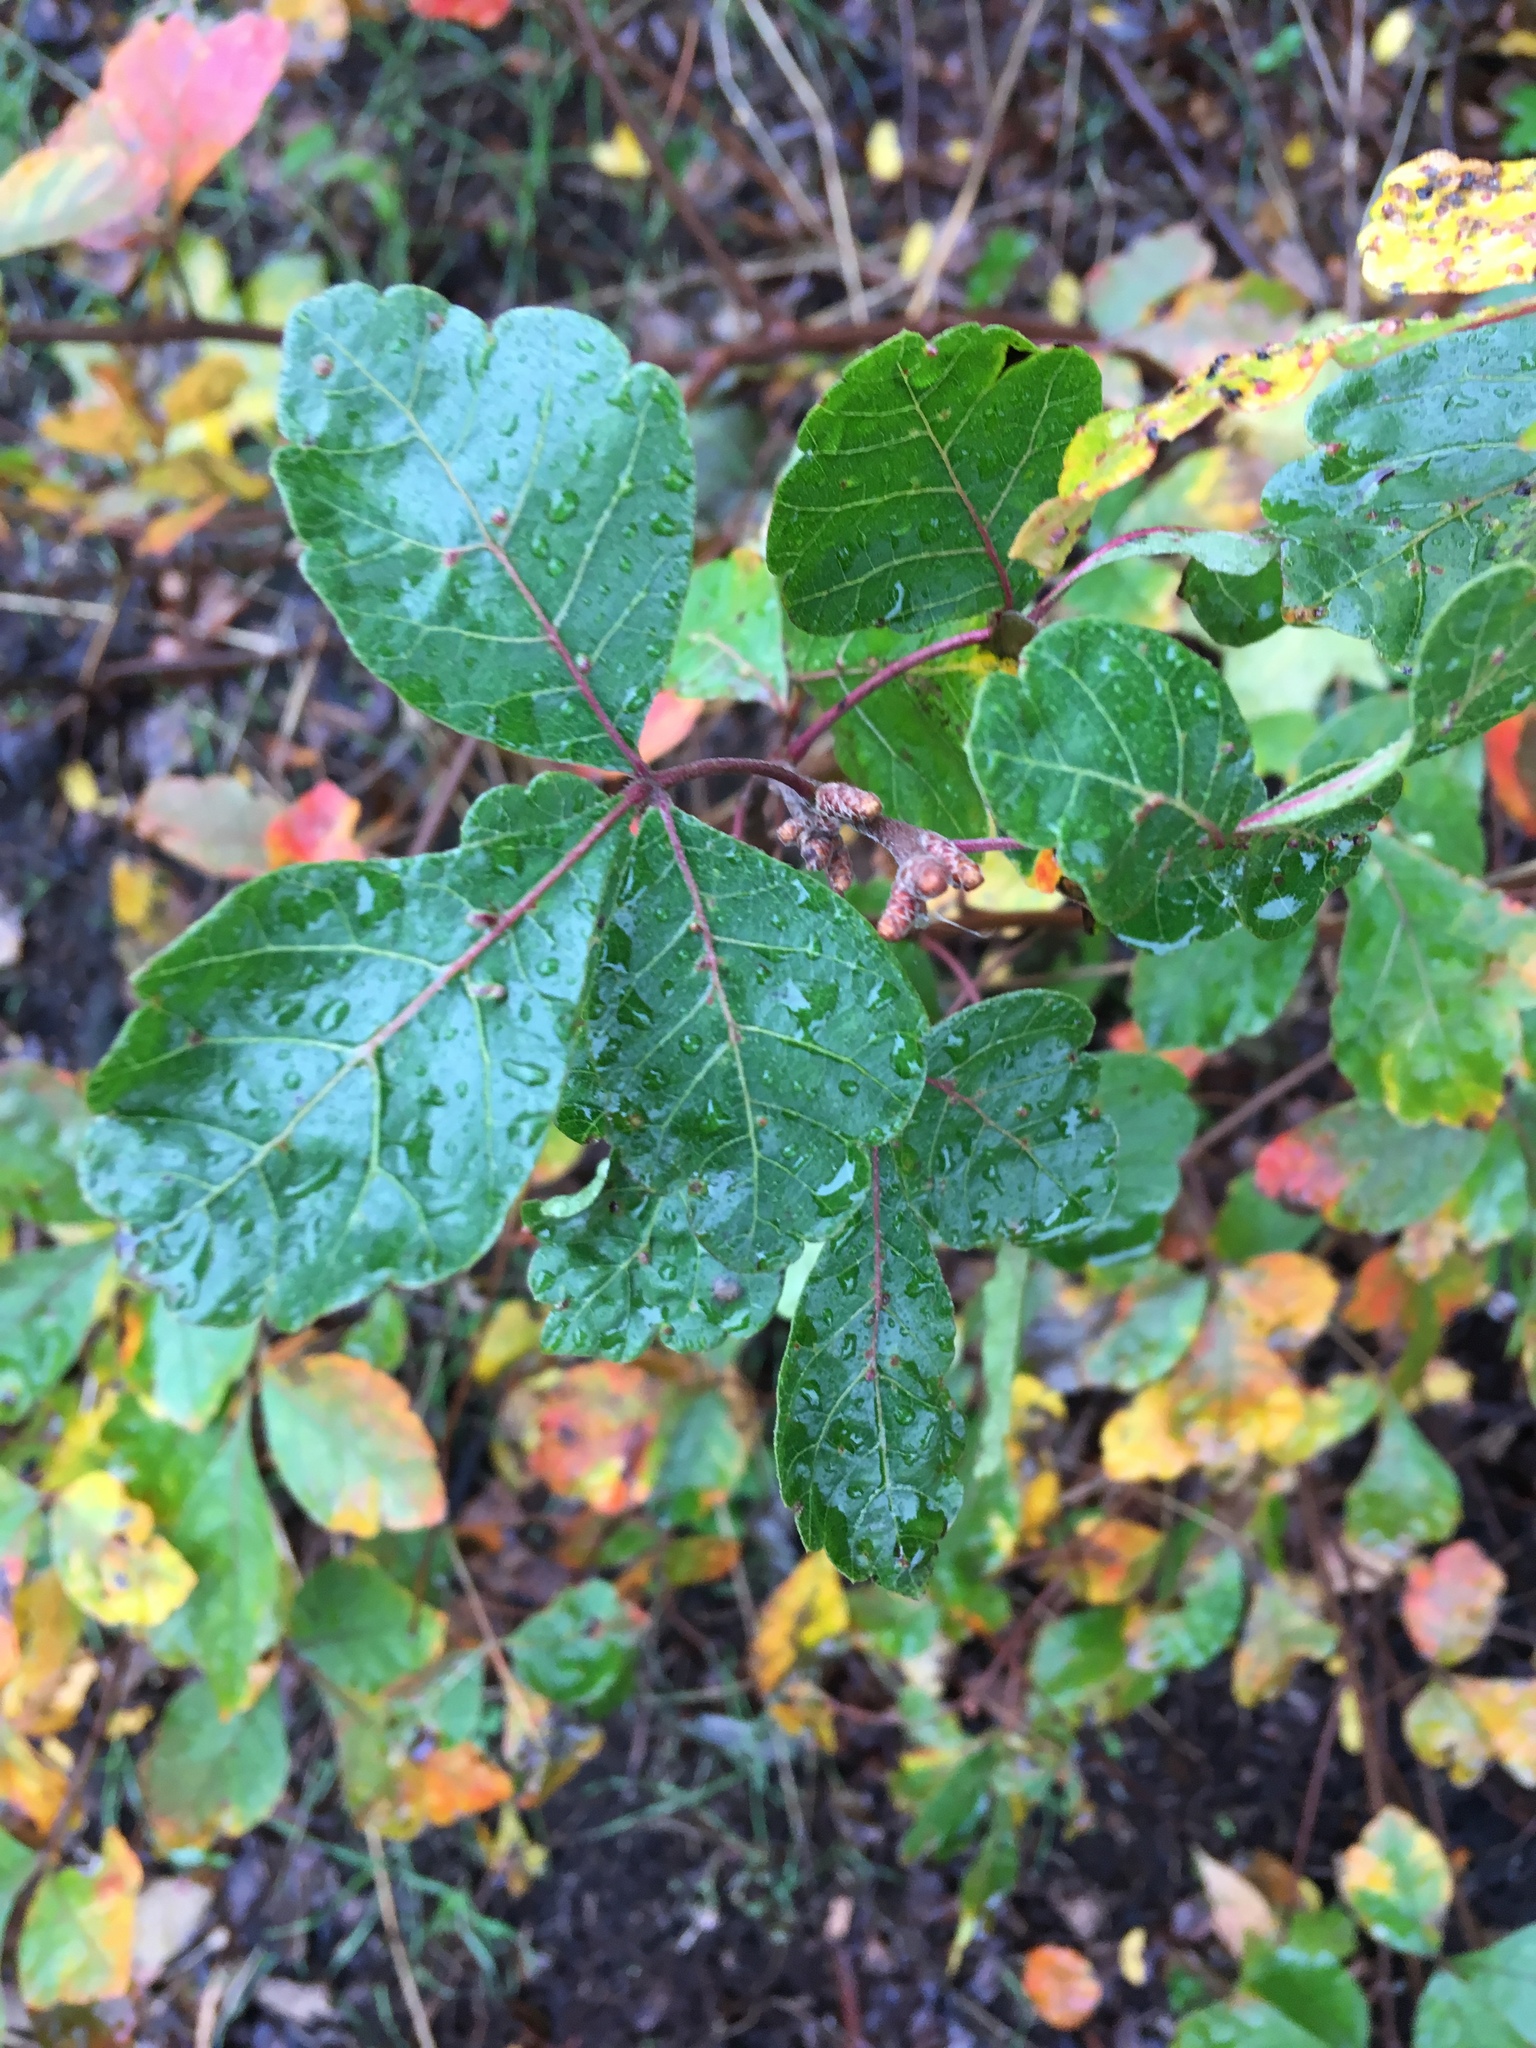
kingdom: Plantae
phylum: Tracheophyta
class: Magnoliopsida
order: Sapindales
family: Anacardiaceae
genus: Rhus
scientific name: Rhus aromatica
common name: Aromatic sumac
